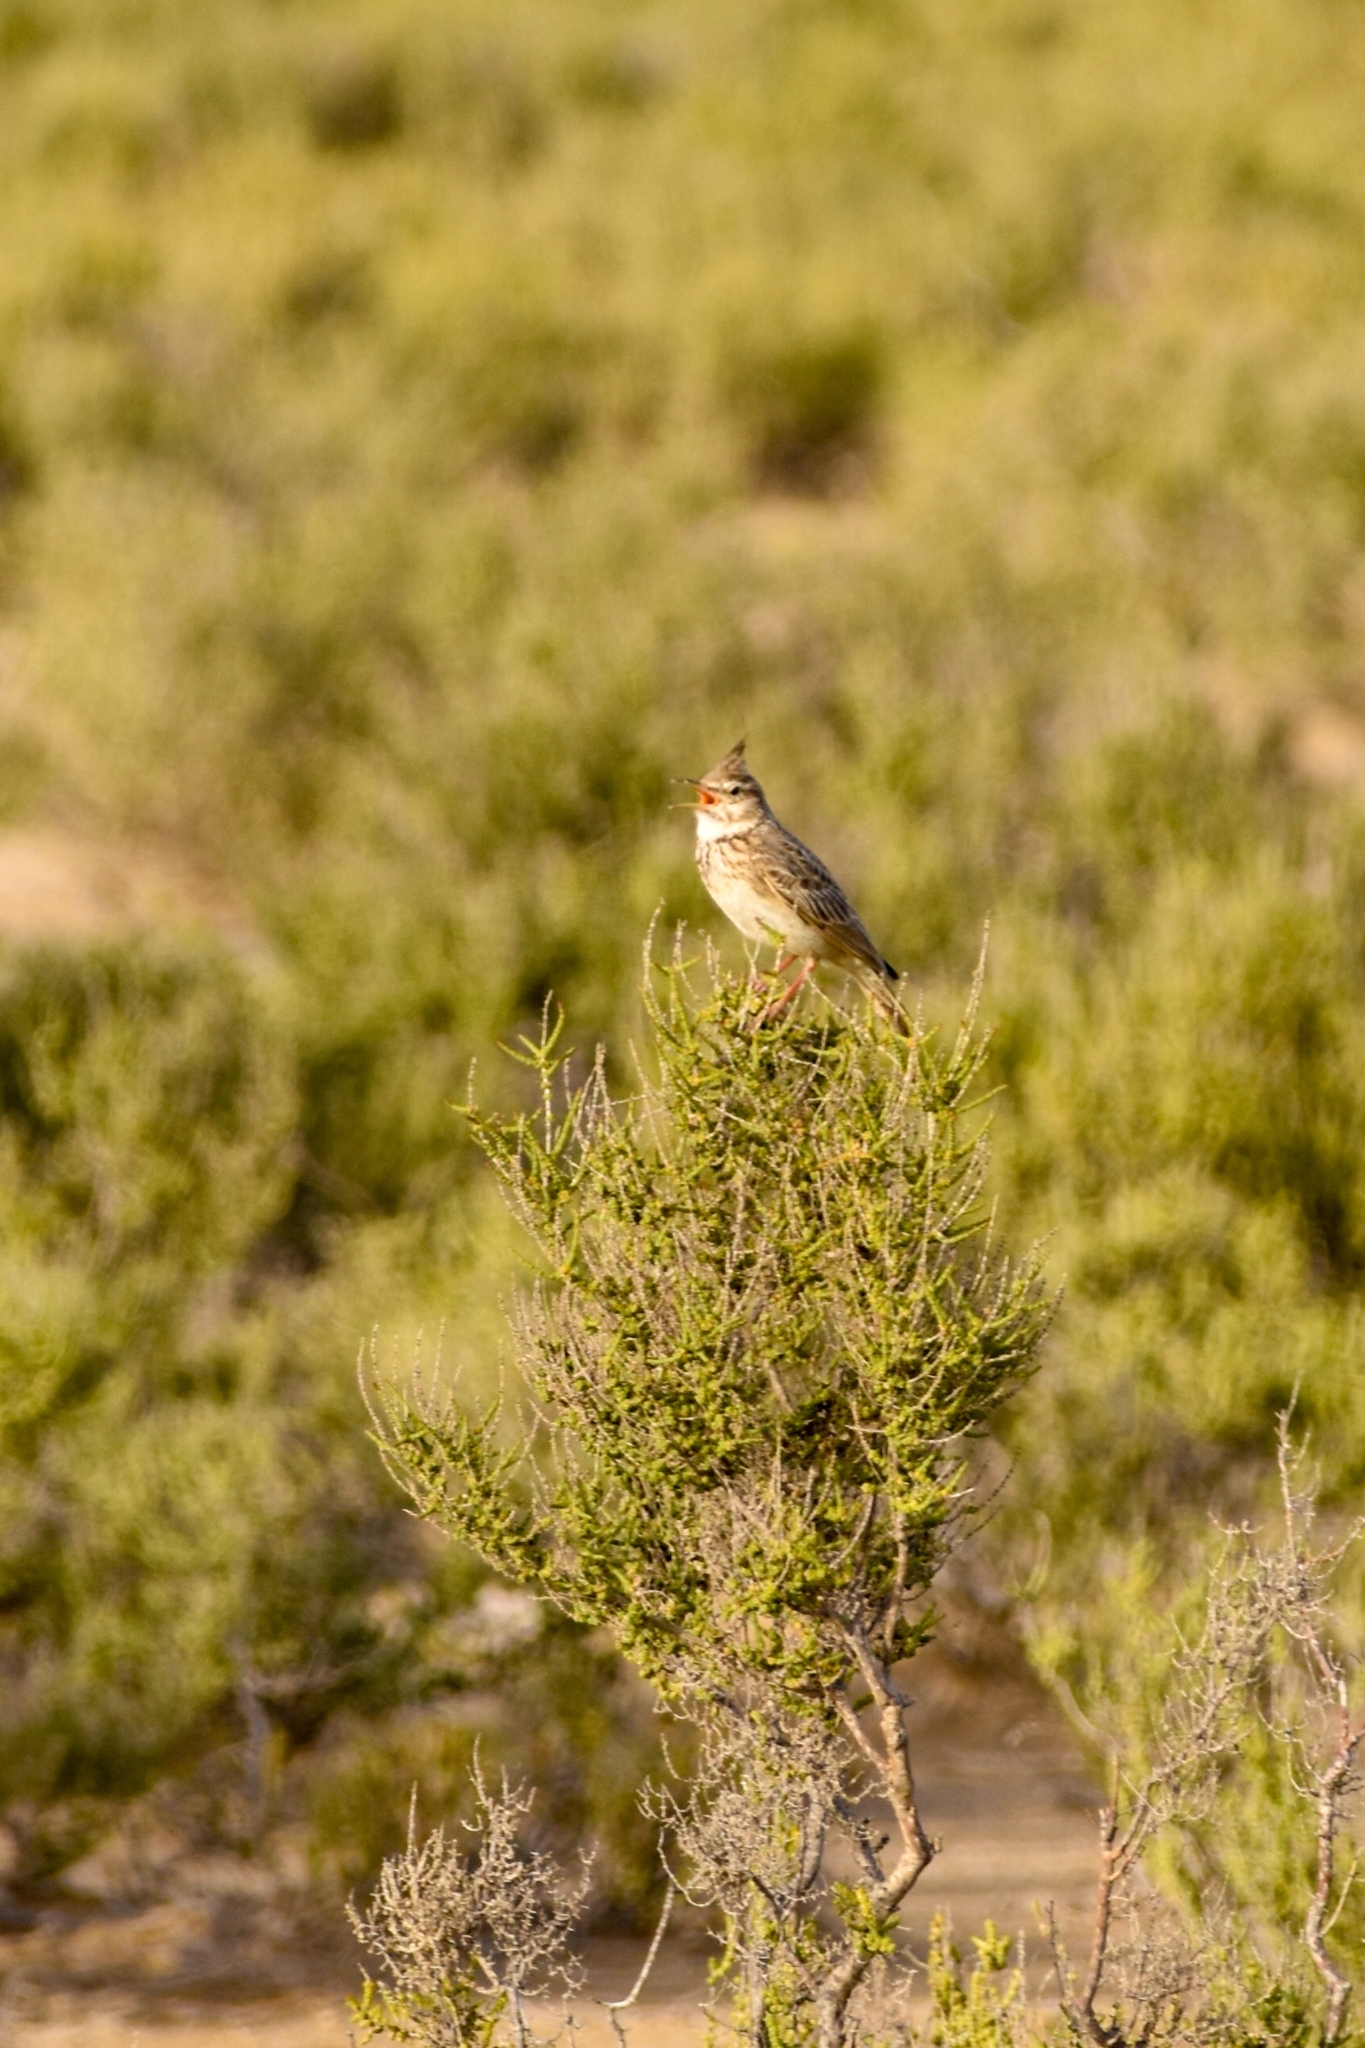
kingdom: Animalia
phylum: Chordata
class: Aves
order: Passeriformes
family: Alaudidae
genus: Galerida
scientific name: Galerida cristata
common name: Crested lark
